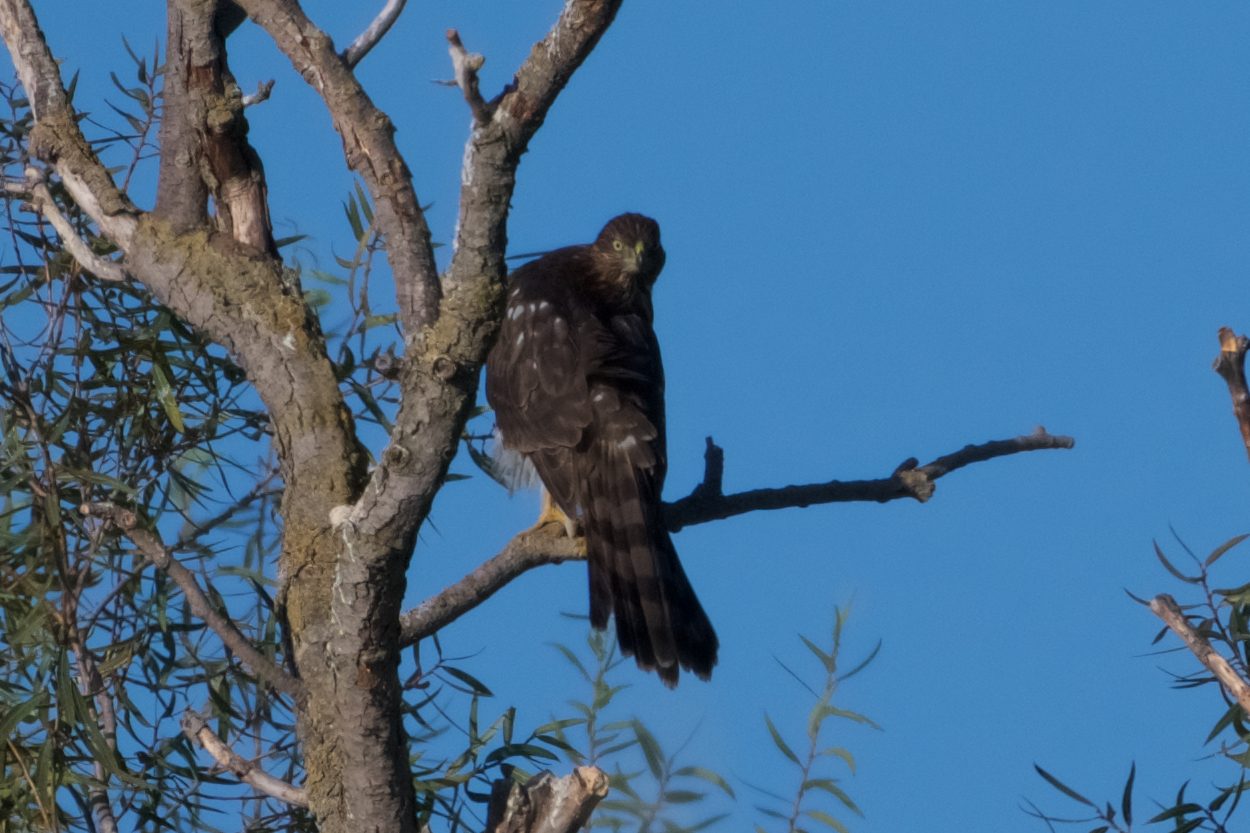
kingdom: Animalia
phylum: Chordata
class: Aves
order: Accipitriformes
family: Accipitridae
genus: Accipiter
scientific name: Accipiter cooperii
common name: Cooper's hawk
